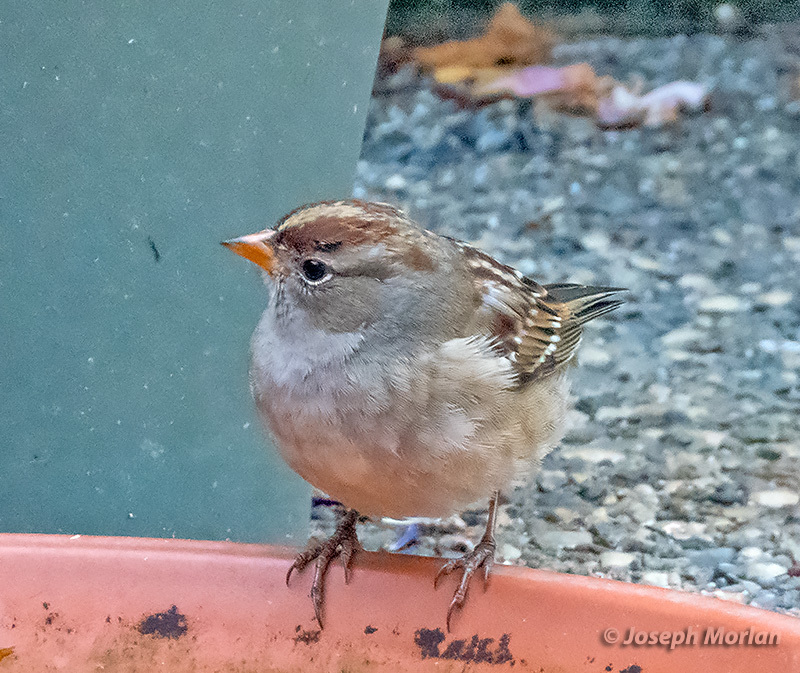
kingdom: Animalia
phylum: Chordata
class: Aves
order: Passeriformes
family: Passerellidae
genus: Zonotrichia
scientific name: Zonotrichia leucophrys
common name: White-crowned sparrow
